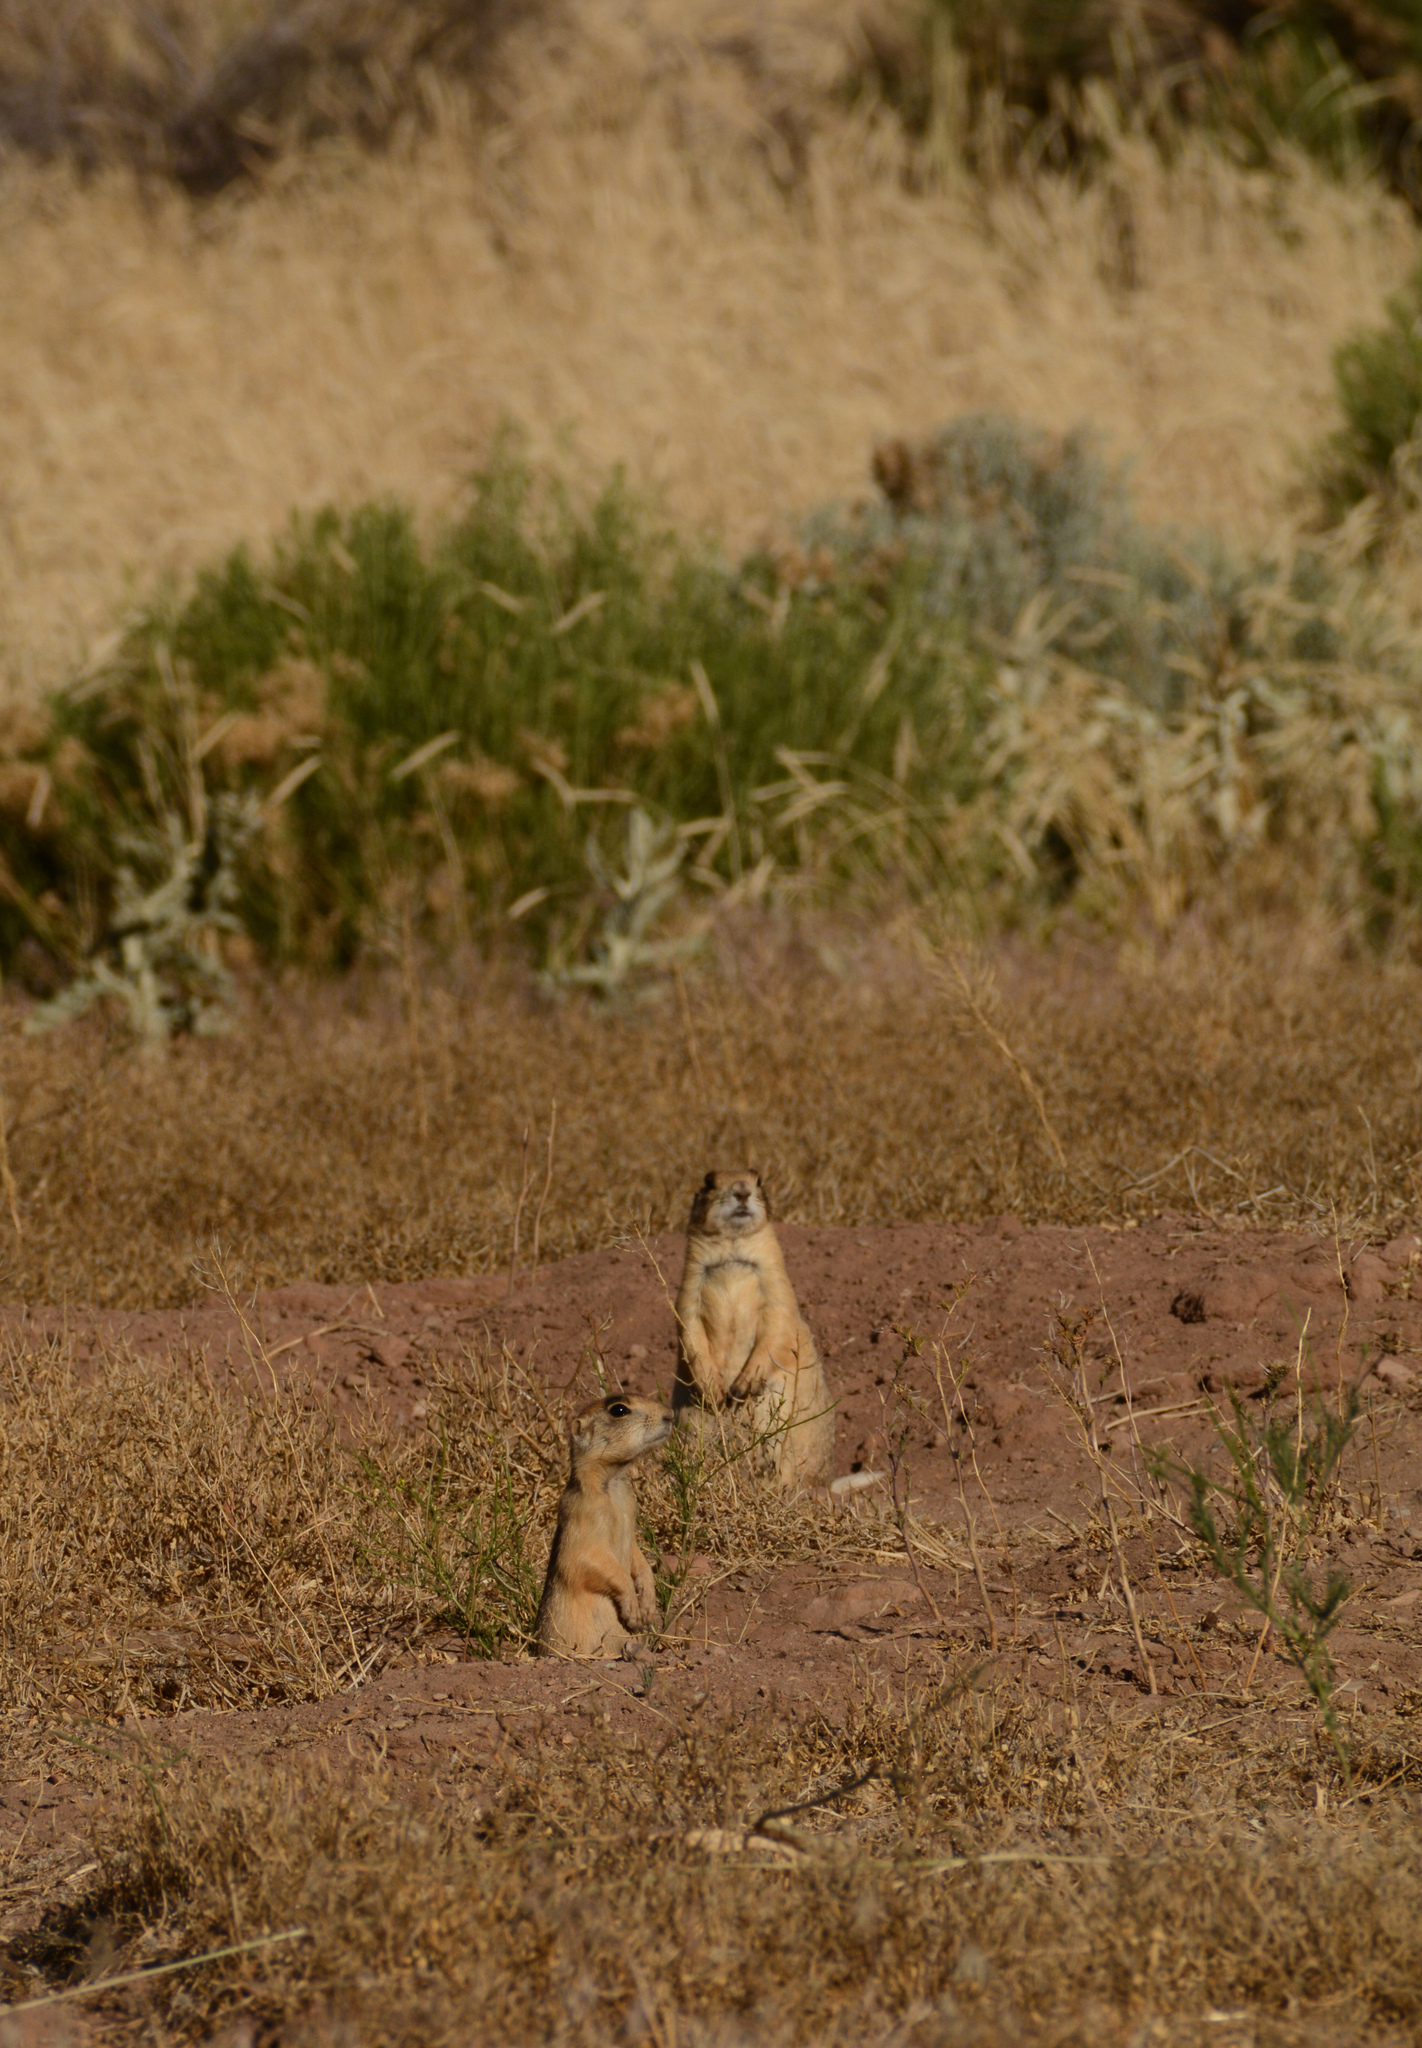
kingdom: Animalia
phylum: Chordata
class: Mammalia
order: Rodentia
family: Sciuridae
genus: Cynomys
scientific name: Cynomys parvidens
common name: Utah prairie dog
